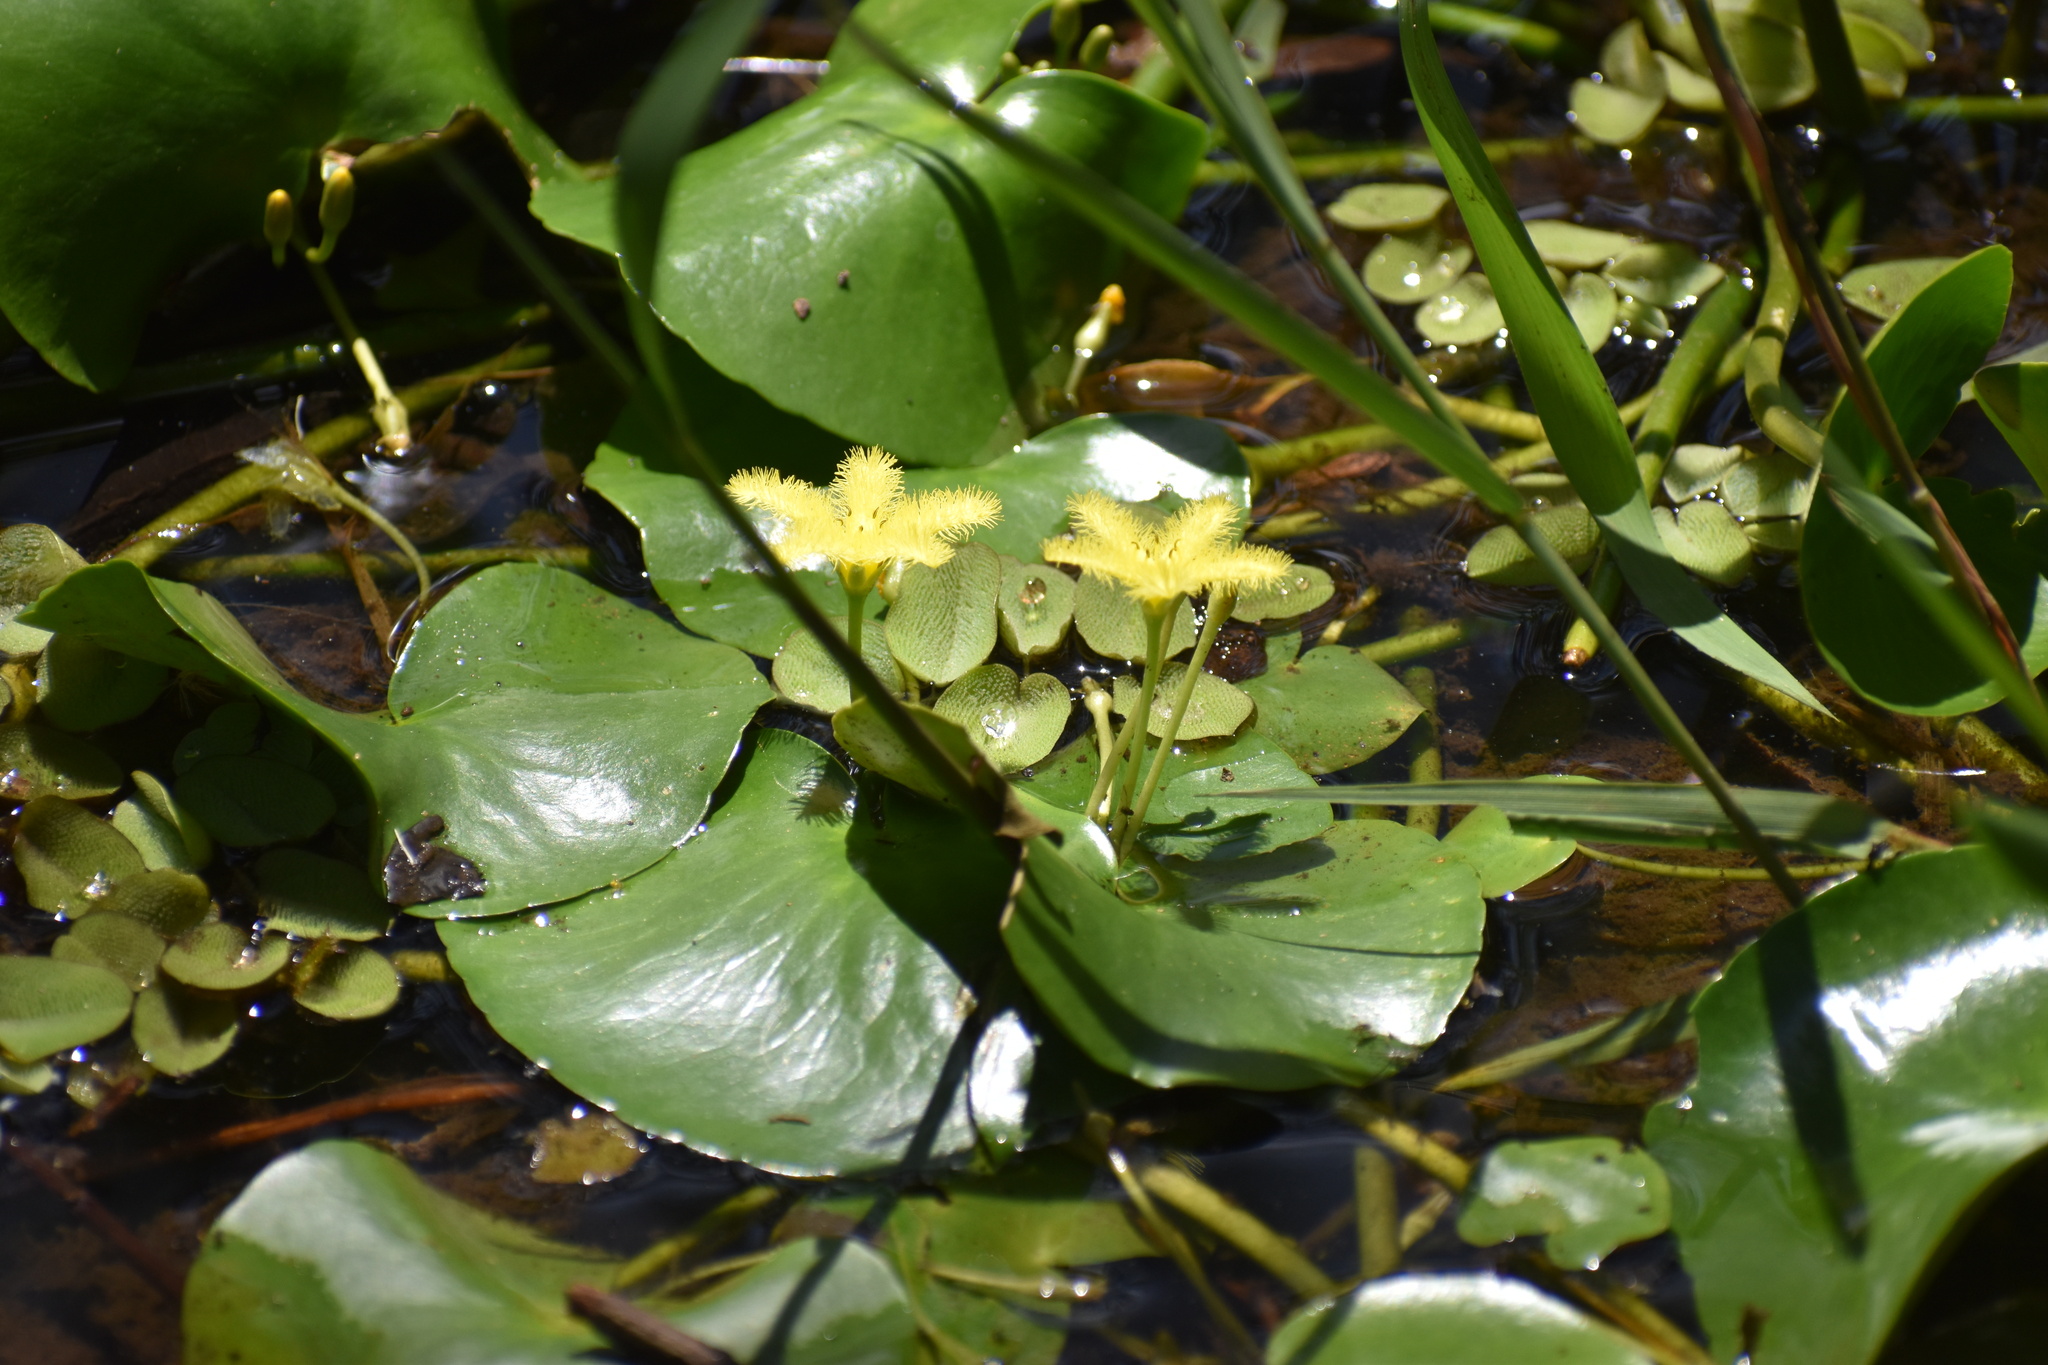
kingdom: Plantae
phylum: Tracheophyta
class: Magnoliopsida
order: Asterales
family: Menyanthaceae
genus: Nymphoides
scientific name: Nymphoides thunbergiana
